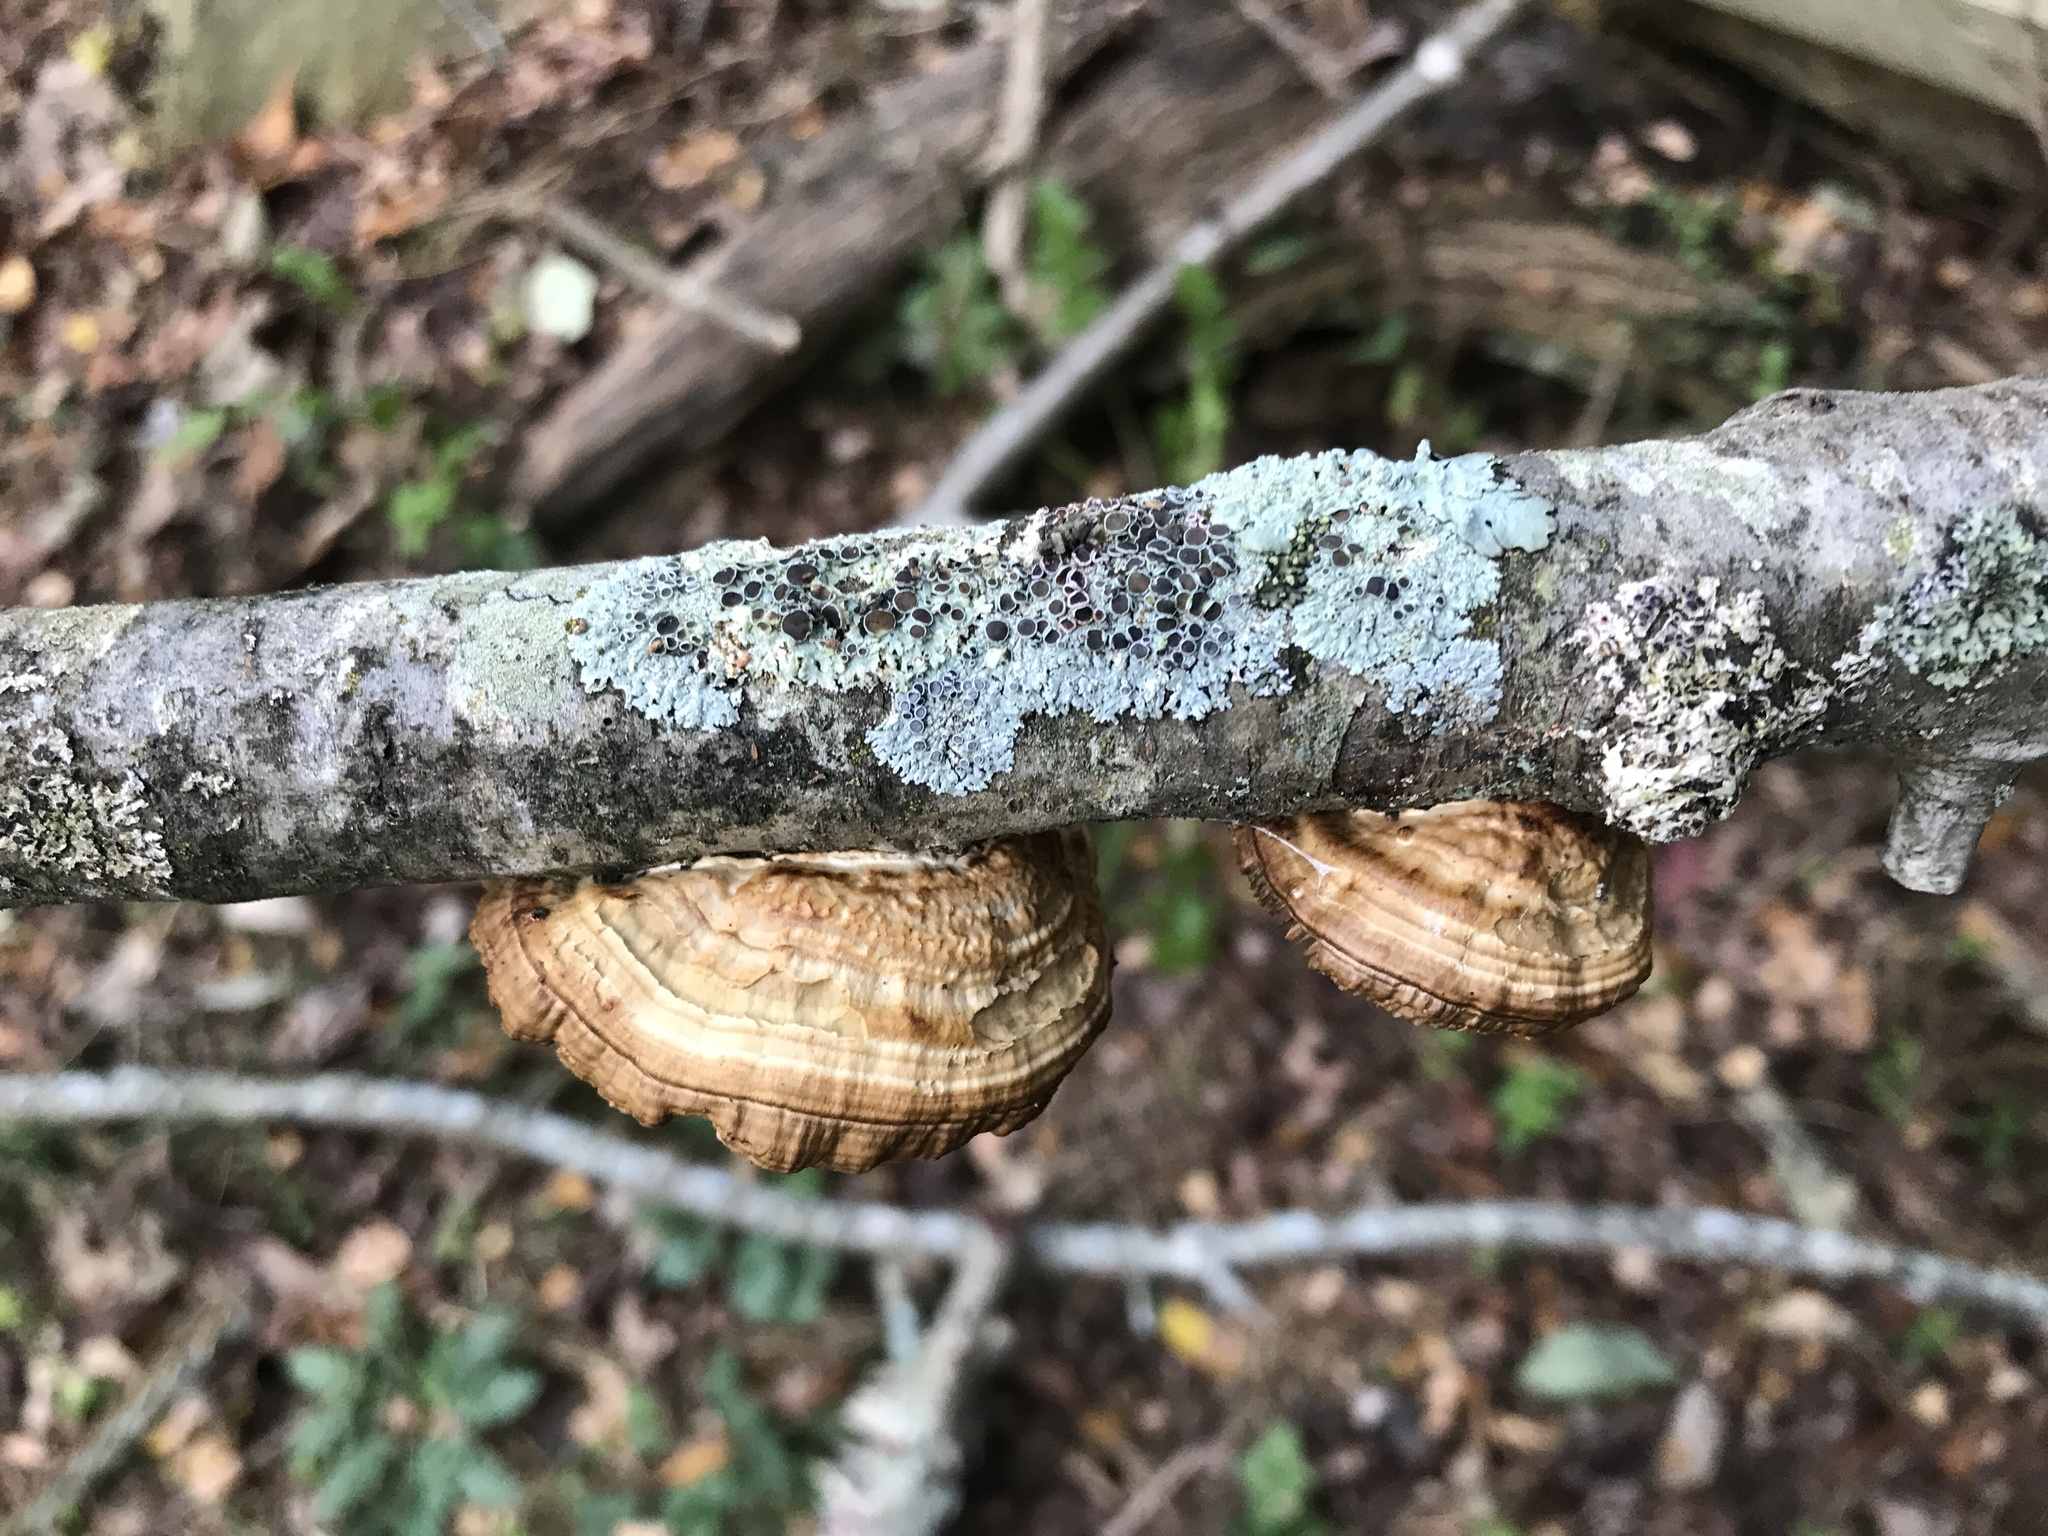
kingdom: Fungi
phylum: Basidiomycota
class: Agaricomycetes
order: Polyporales
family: Polyporaceae
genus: Daedaleopsis
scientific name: Daedaleopsis septentrionalis
